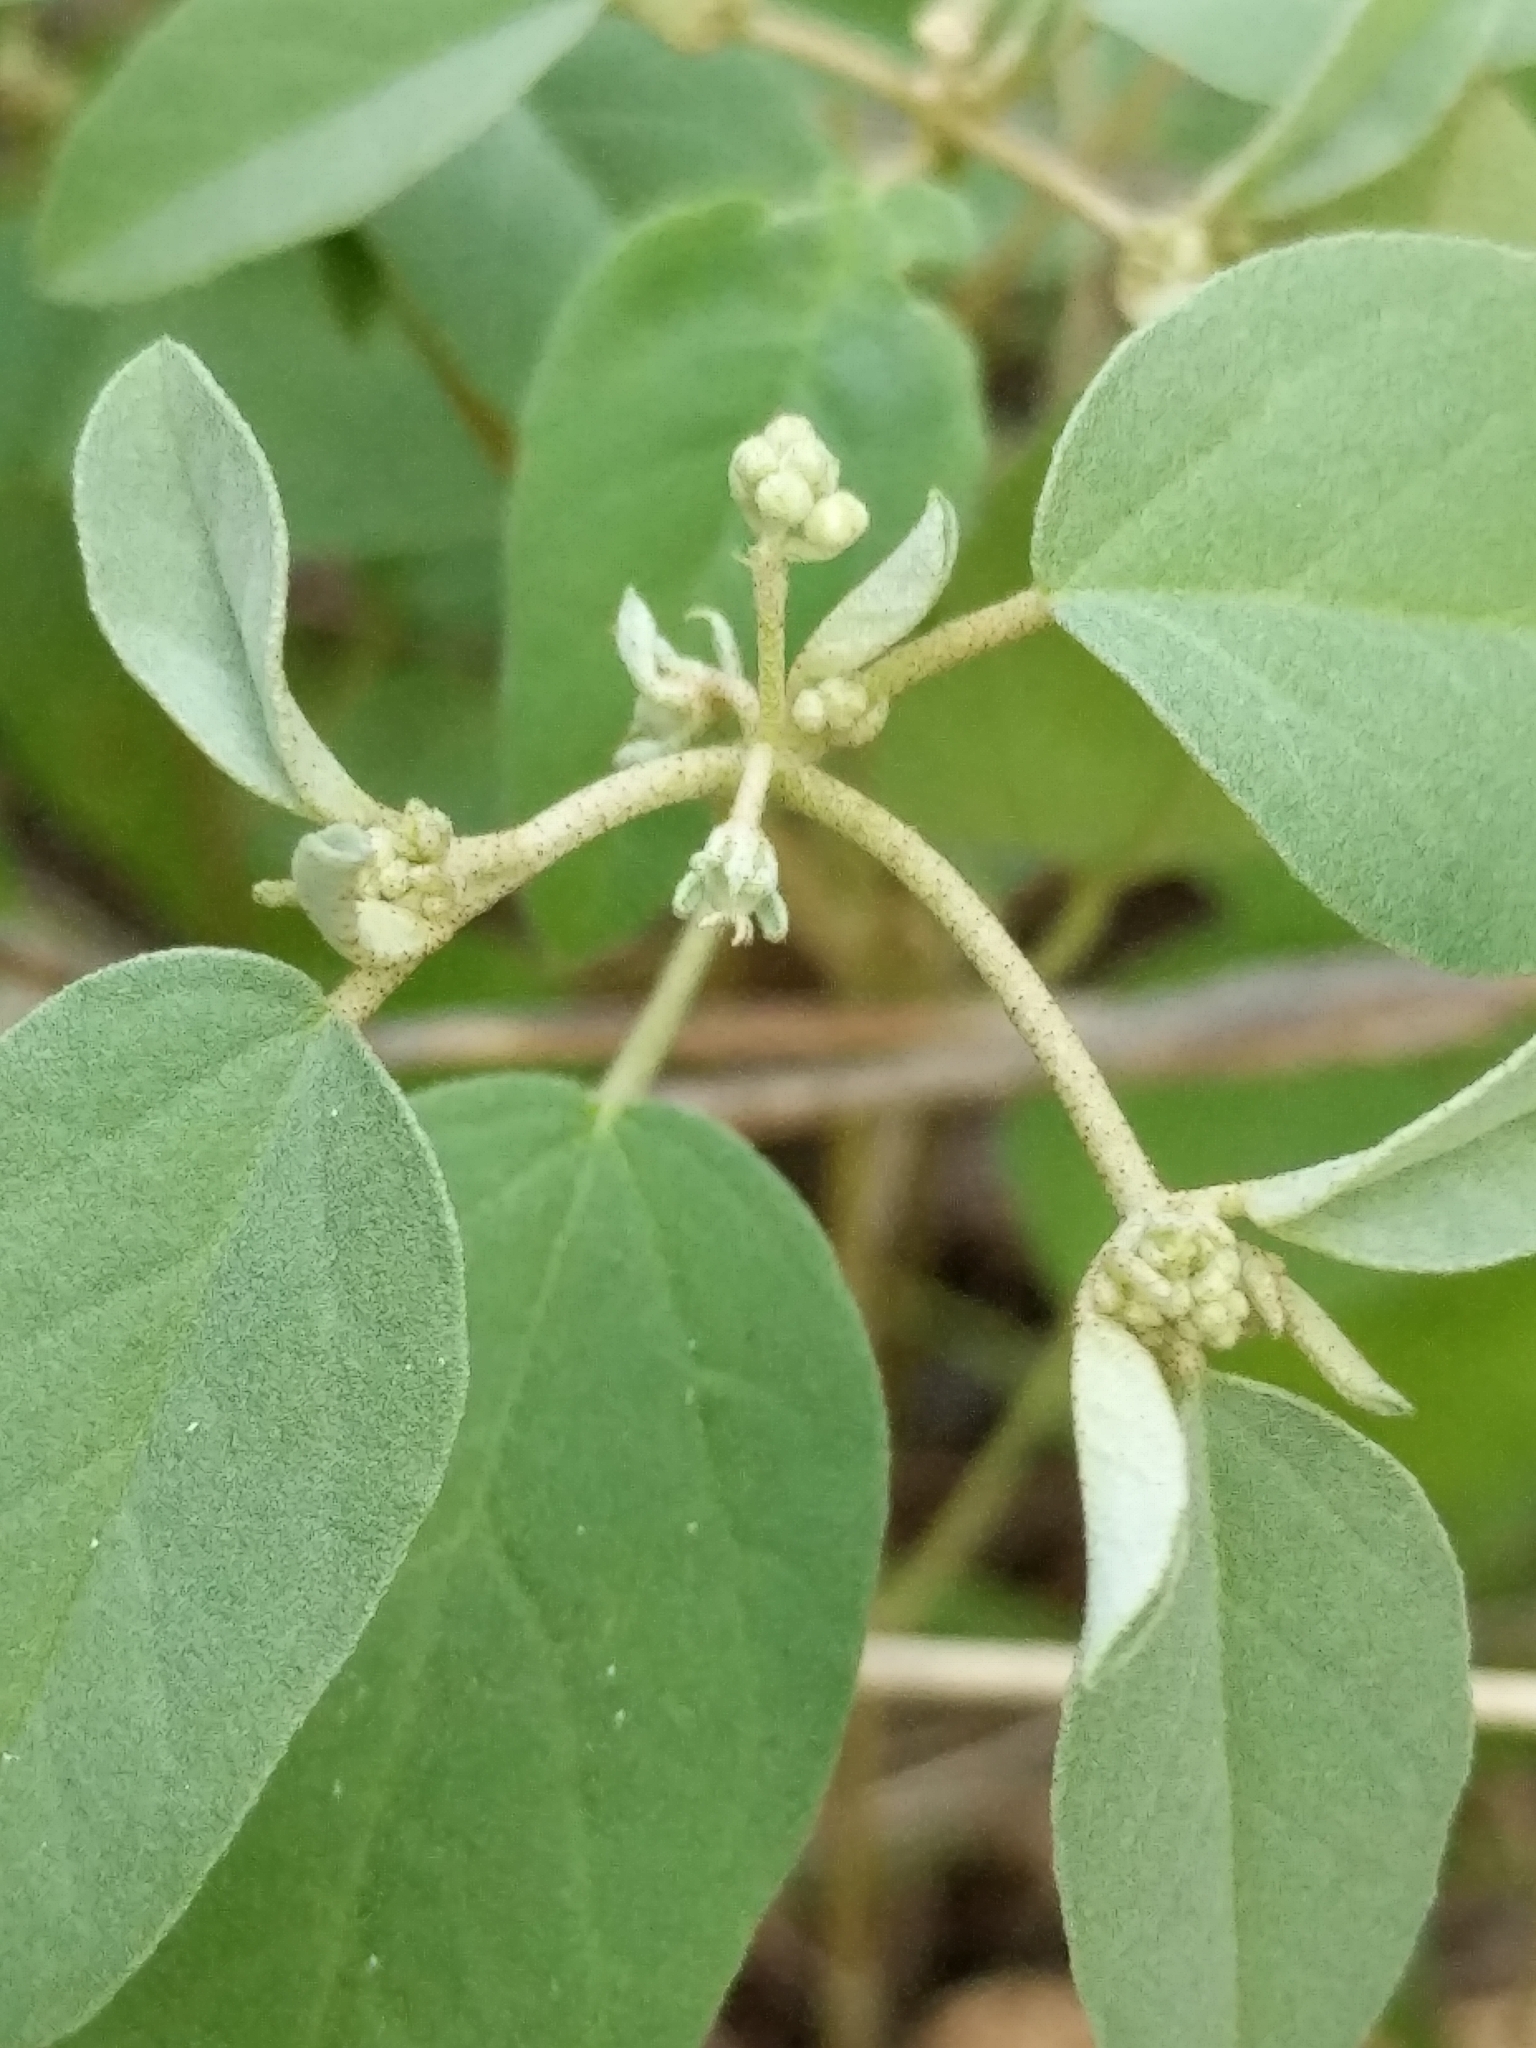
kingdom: Plantae
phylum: Tracheophyta
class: Magnoliopsida
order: Malpighiales
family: Euphorbiaceae
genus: Croton
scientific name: Croton monanthogynus
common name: One-seed croton
